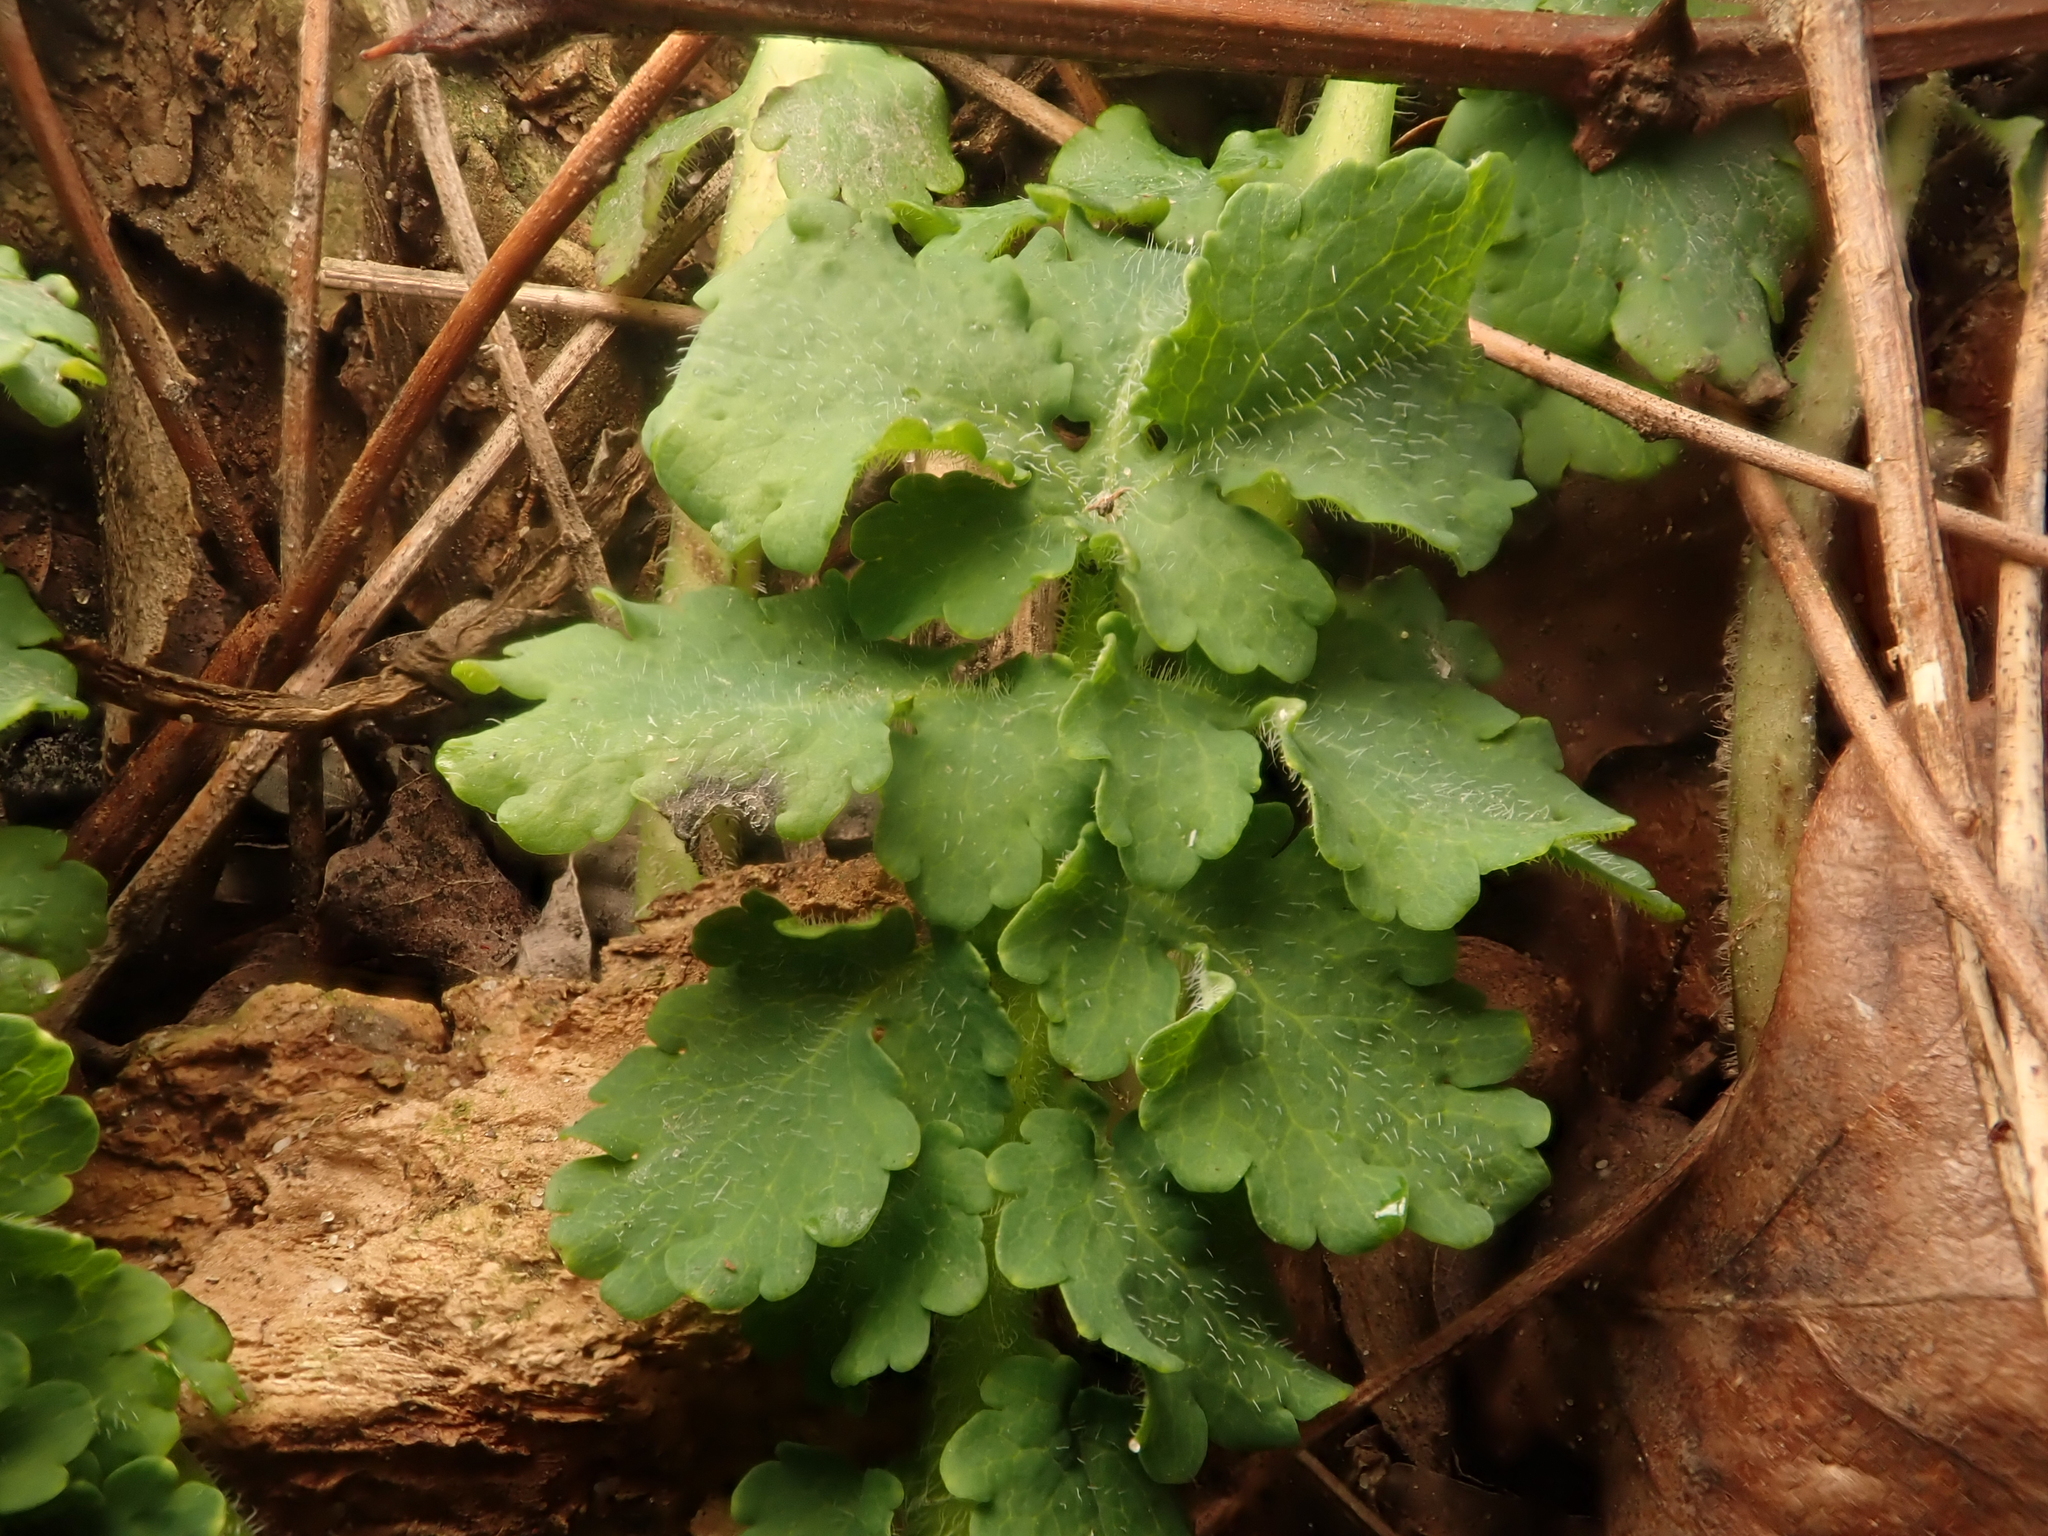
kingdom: Plantae
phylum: Tracheophyta
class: Magnoliopsida
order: Ranunculales
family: Papaveraceae
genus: Chelidonium
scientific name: Chelidonium majus
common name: Greater celandine
